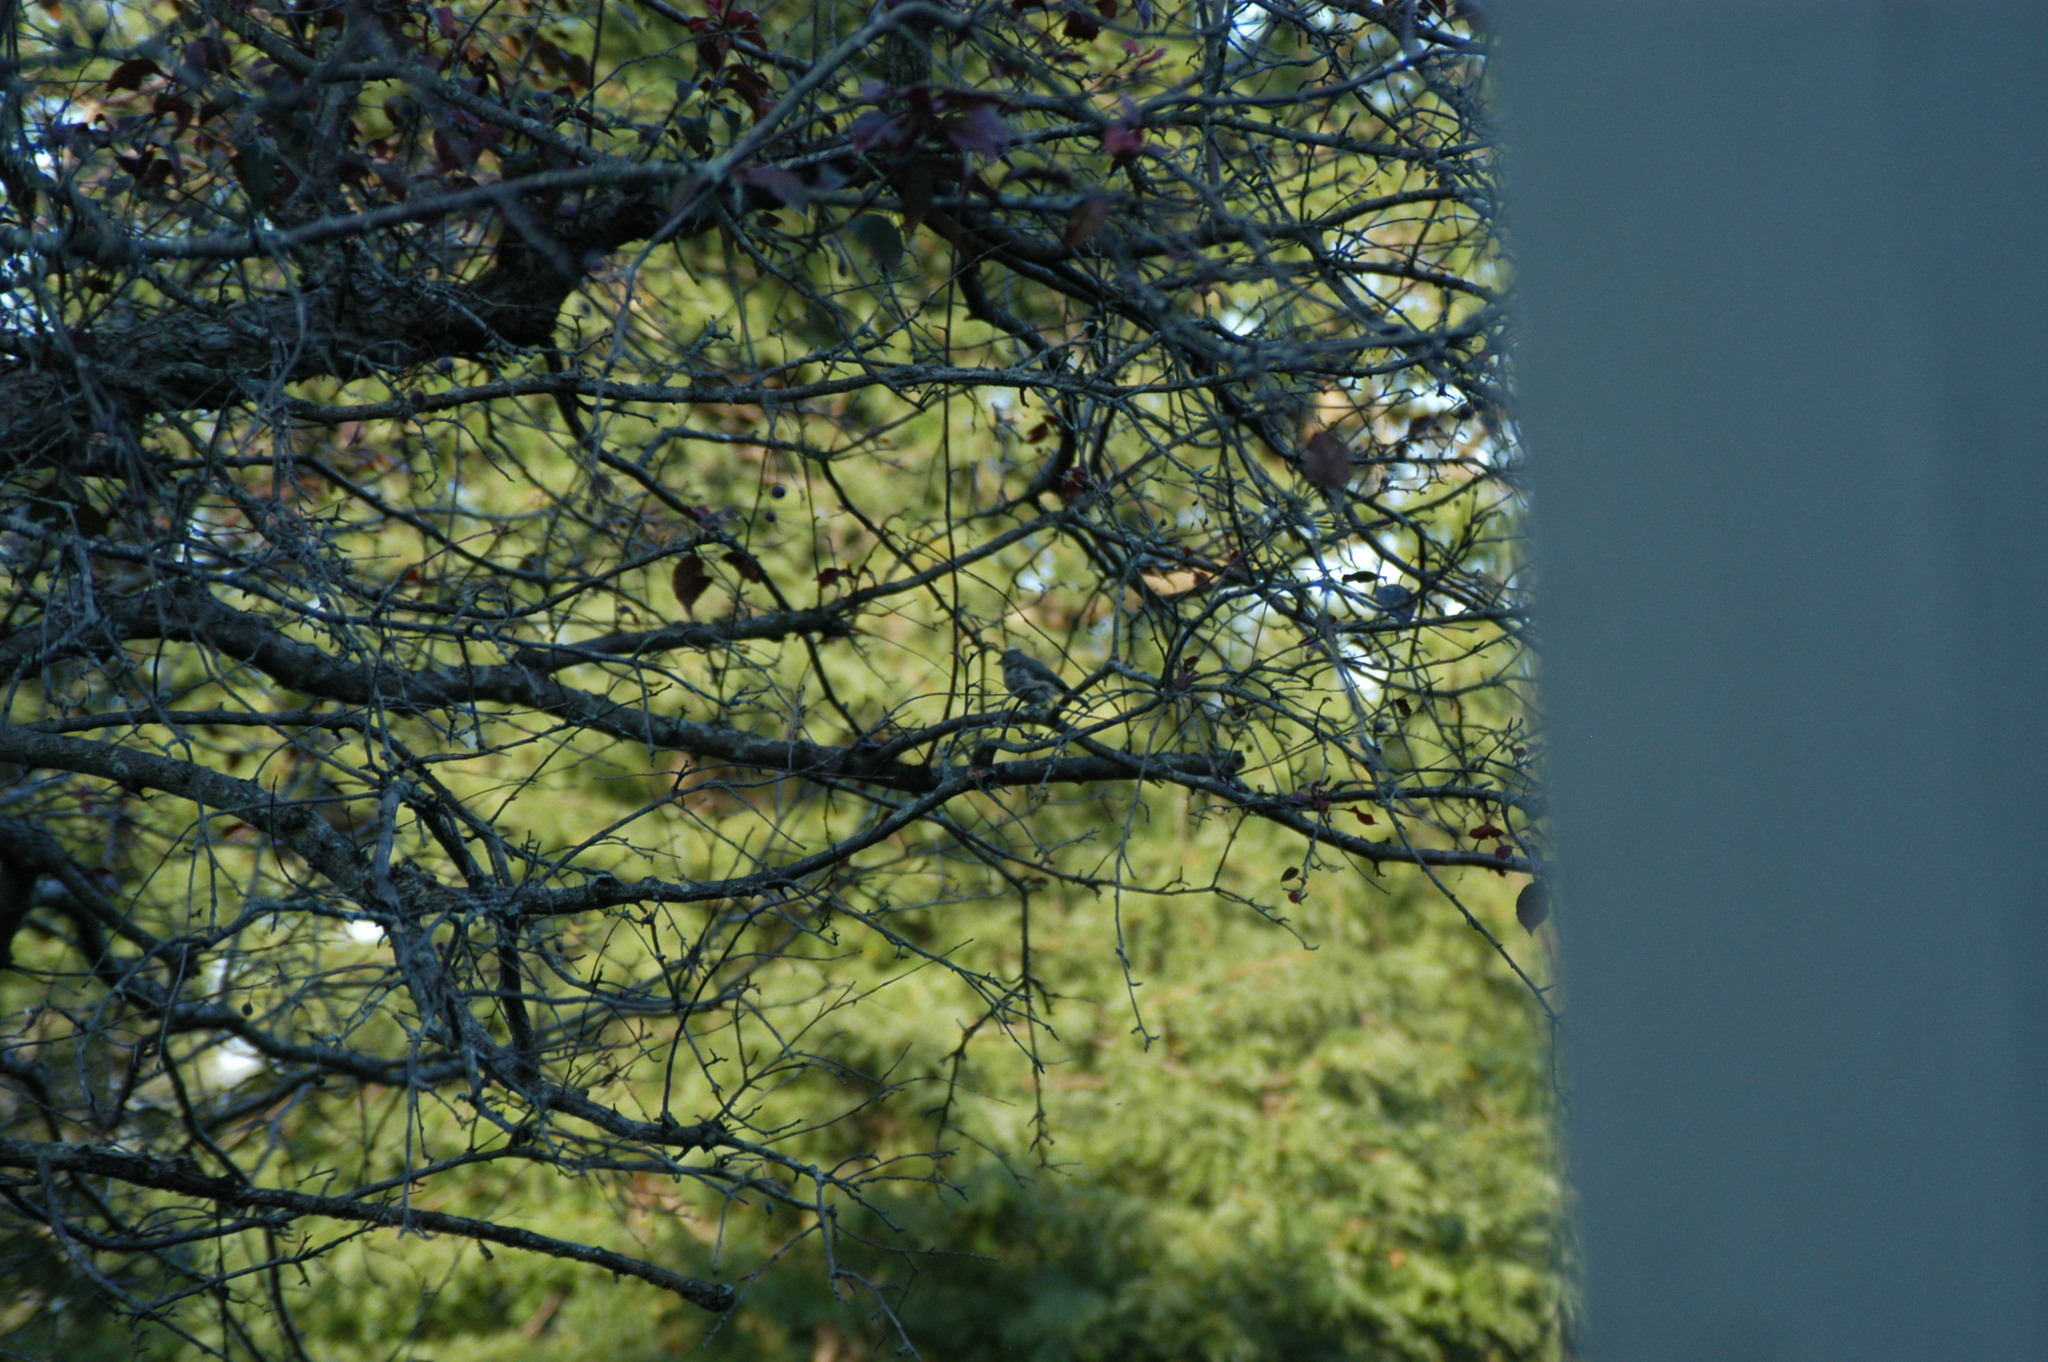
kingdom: Animalia
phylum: Chordata
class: Aves
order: Passeriformes
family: Paridae
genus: Baeolophus
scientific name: Baeolophus bicolor
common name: Tufted titmouse
